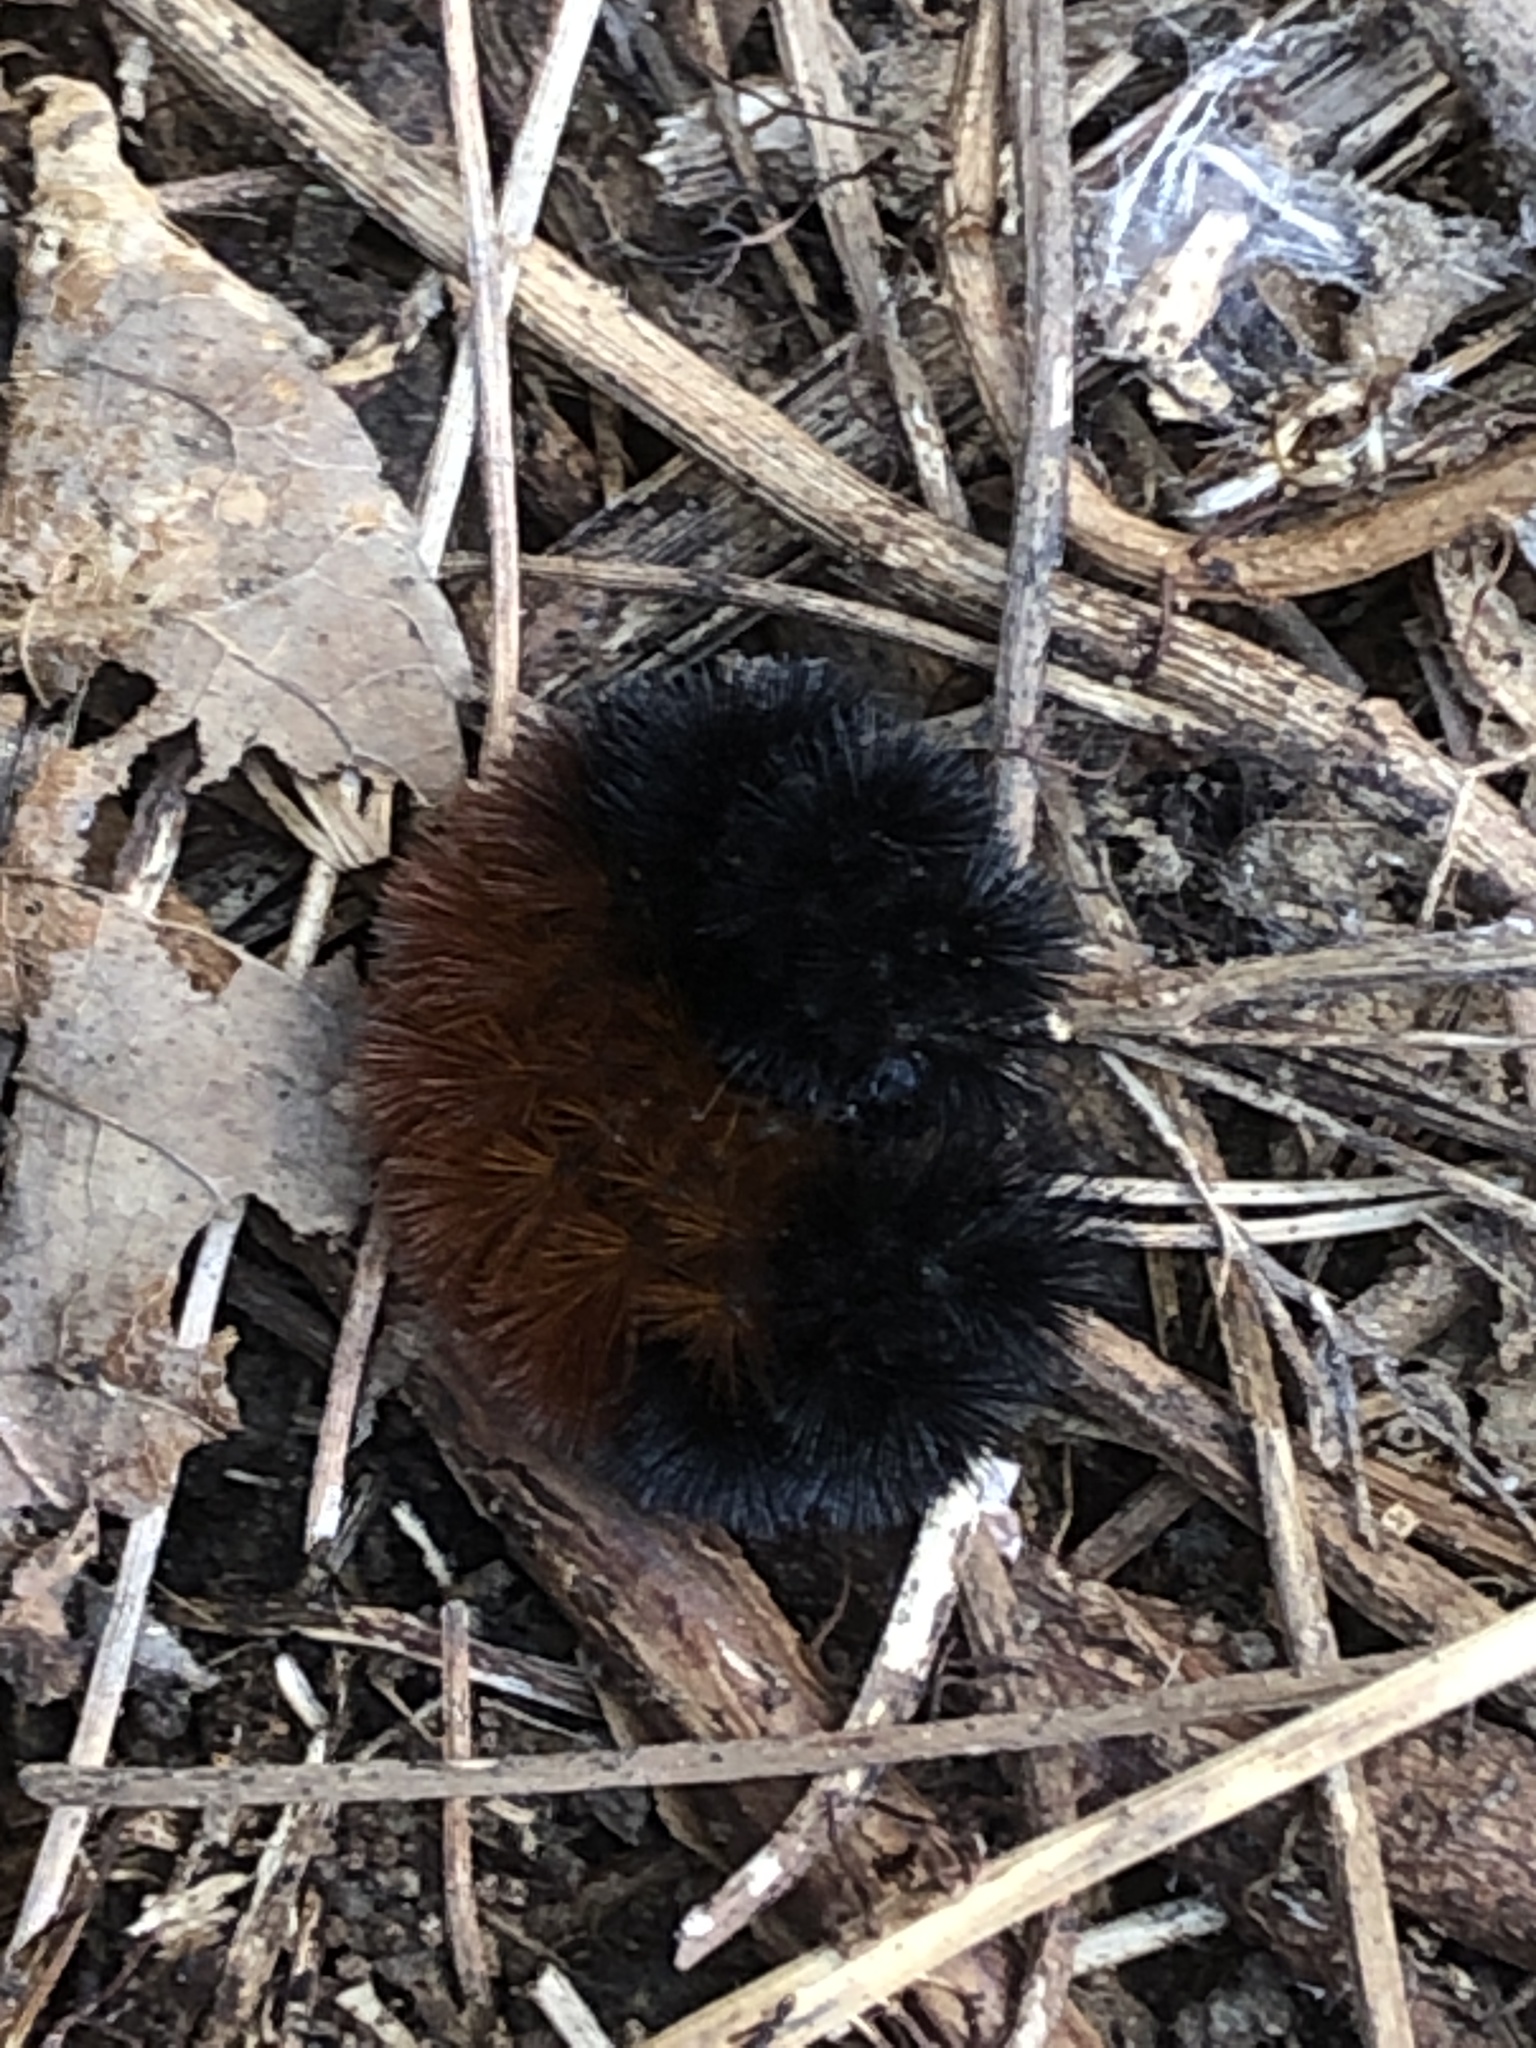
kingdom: Animalia
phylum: Arthropoda
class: Insecta
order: Lepidoptera
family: Erebidae
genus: Pyrrharctia
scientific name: Pyrrharctia isabella
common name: Isabella tiger moth
